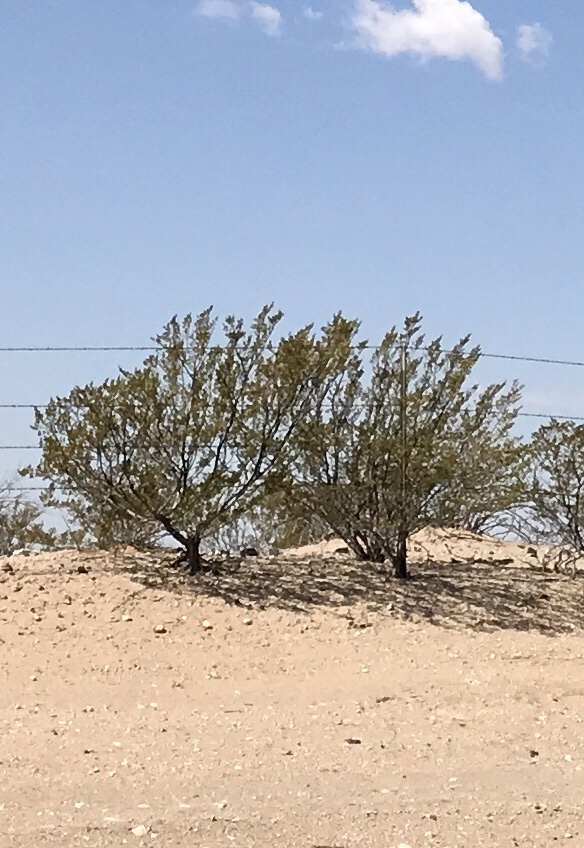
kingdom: Plantae
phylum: Tracheophyta
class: Magnoliopsida
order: Zygophyllales
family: Zygophyllaceae
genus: Larrea
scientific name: Larrea tridentata
